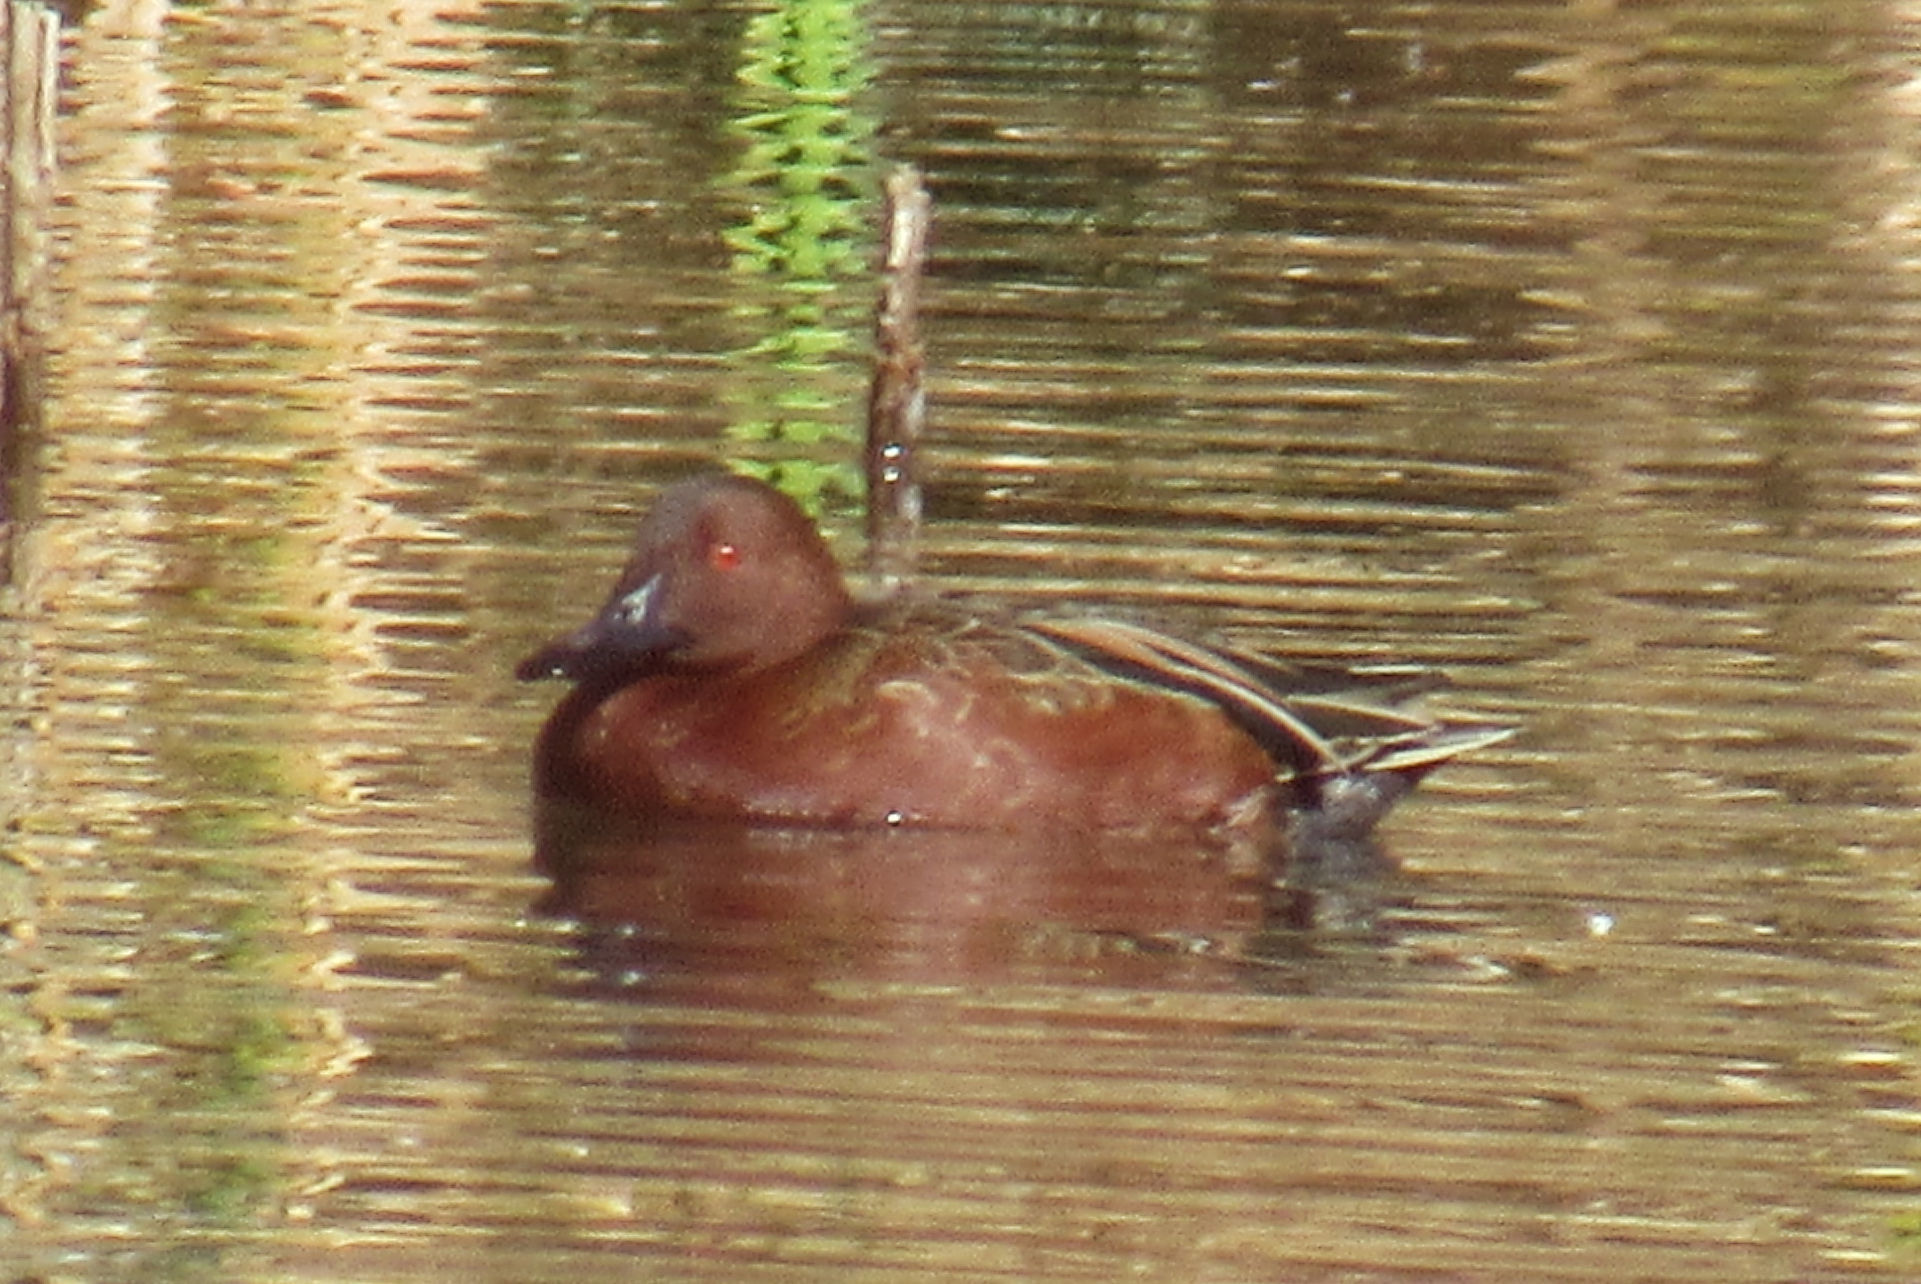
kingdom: Animalia
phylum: Chordata
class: Aves
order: Anseriformes
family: Anatidae
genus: Spatula
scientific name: Spatula cyanoptera
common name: Cinnamon teal
